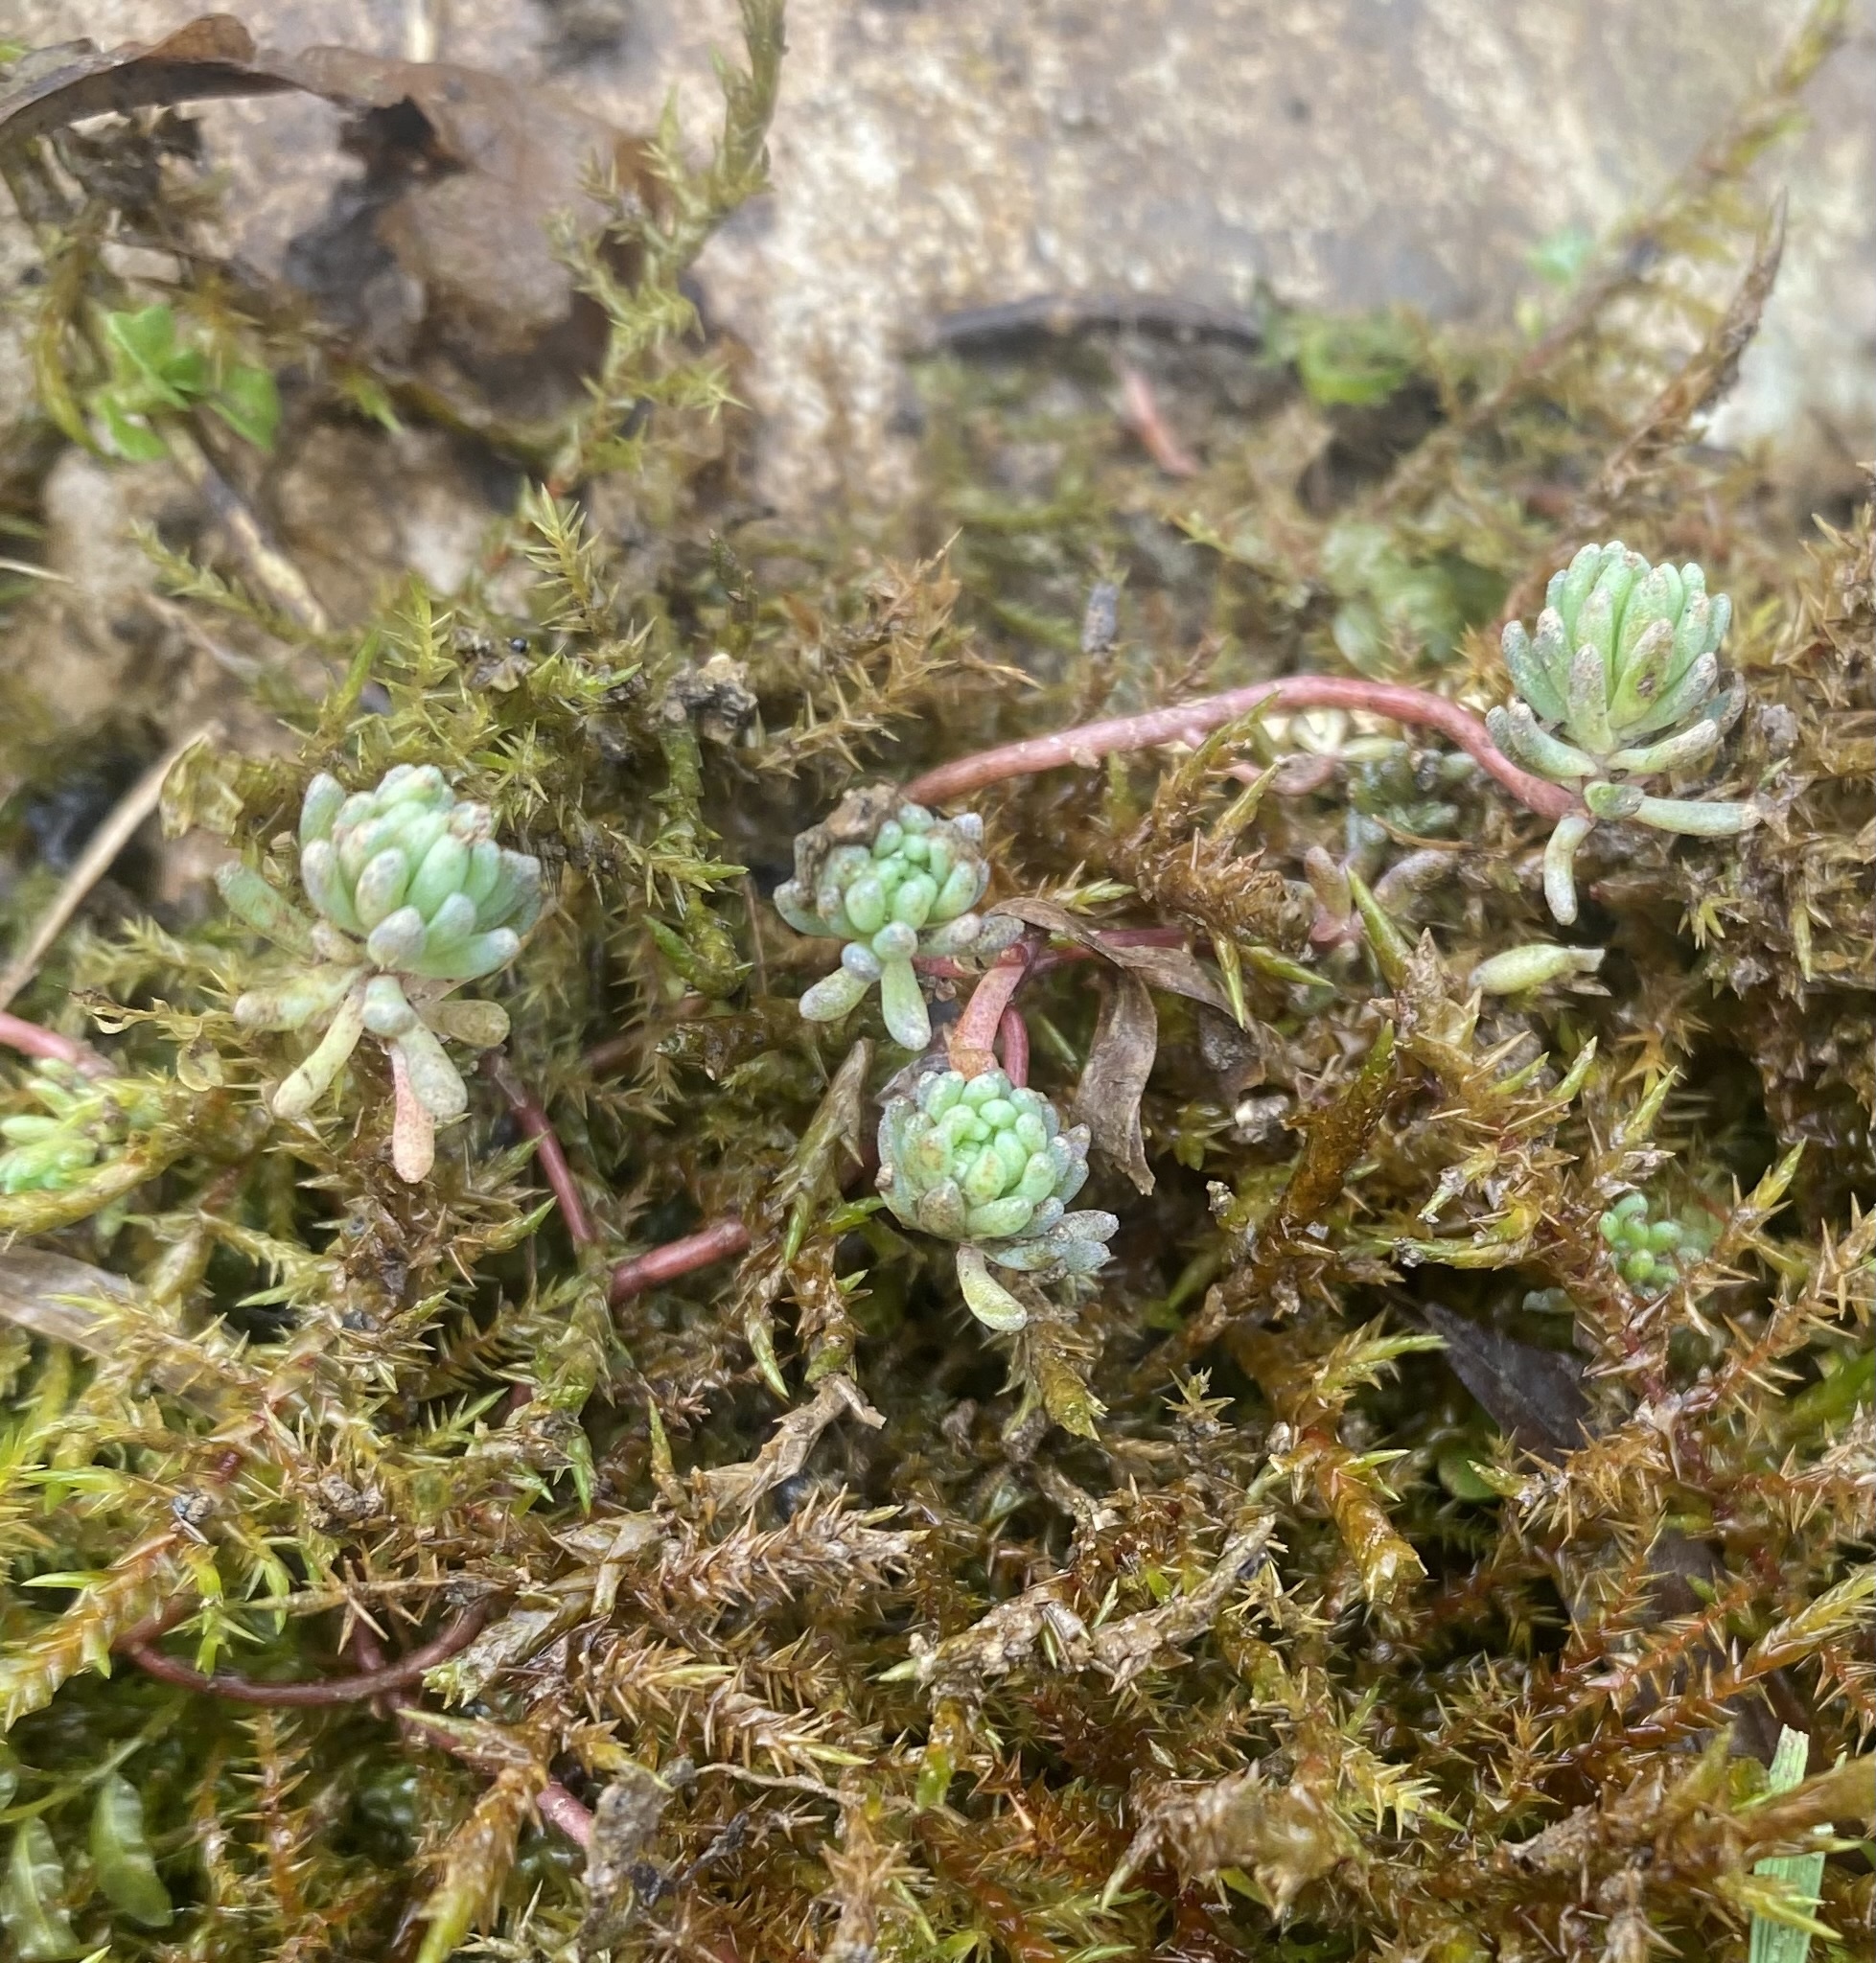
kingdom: Plantae
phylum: Tracheophyta
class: Magnoliopsida
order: Saxifragales
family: Crassulaceae
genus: Sedum
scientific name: Sedum pallidum
